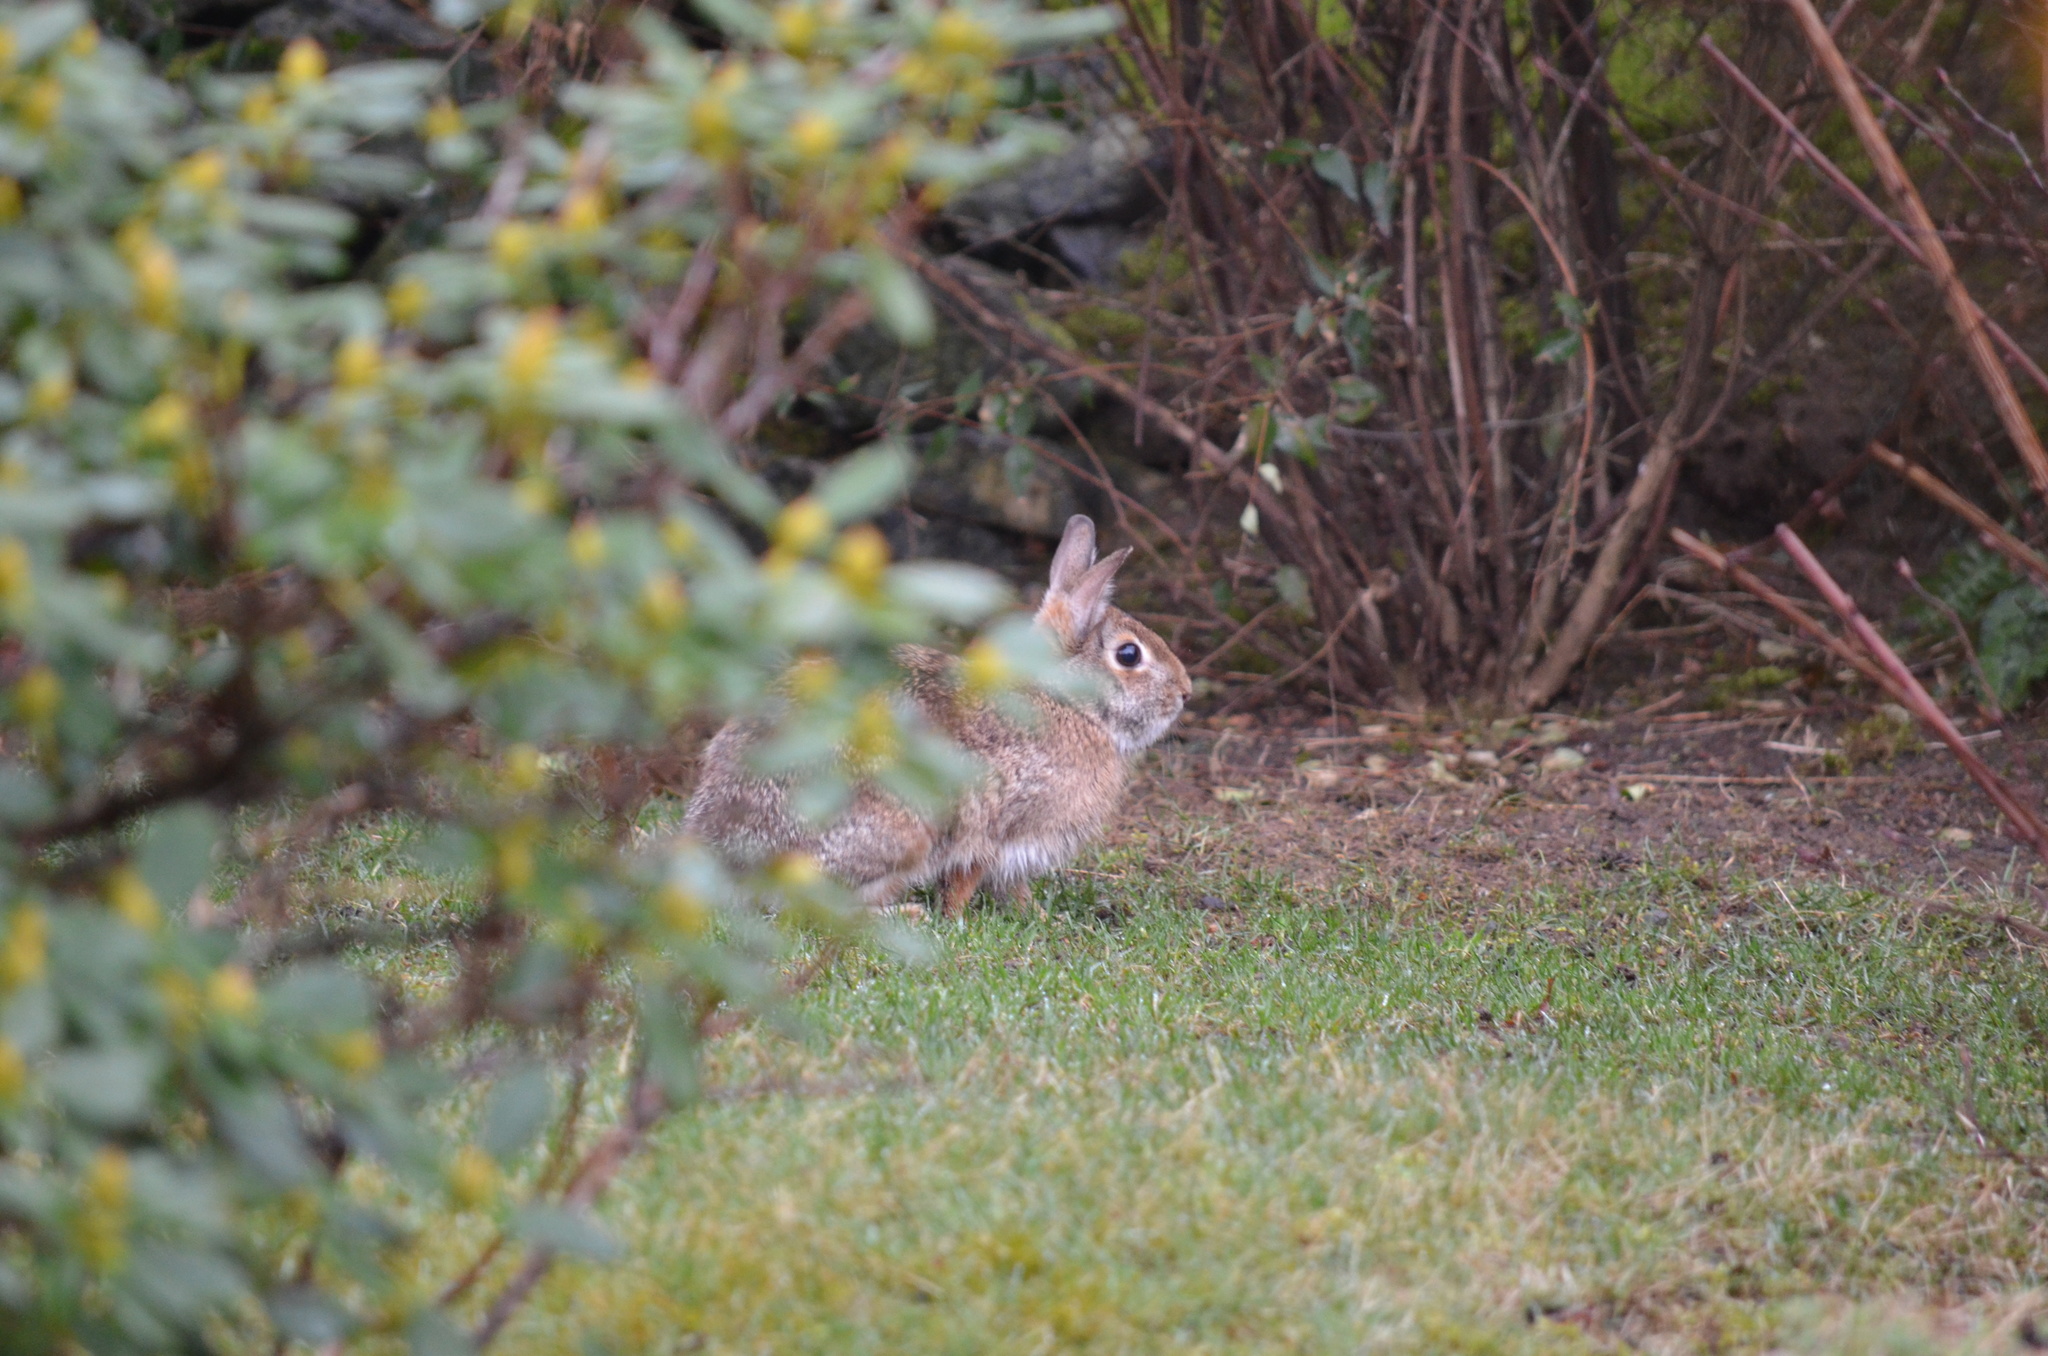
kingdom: Animalia
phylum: Chordata
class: Mammalia
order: Lagomorpha
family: Leporidae
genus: Sylvilagus
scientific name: Sylvilagus floridanus
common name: Eastern cottontail
